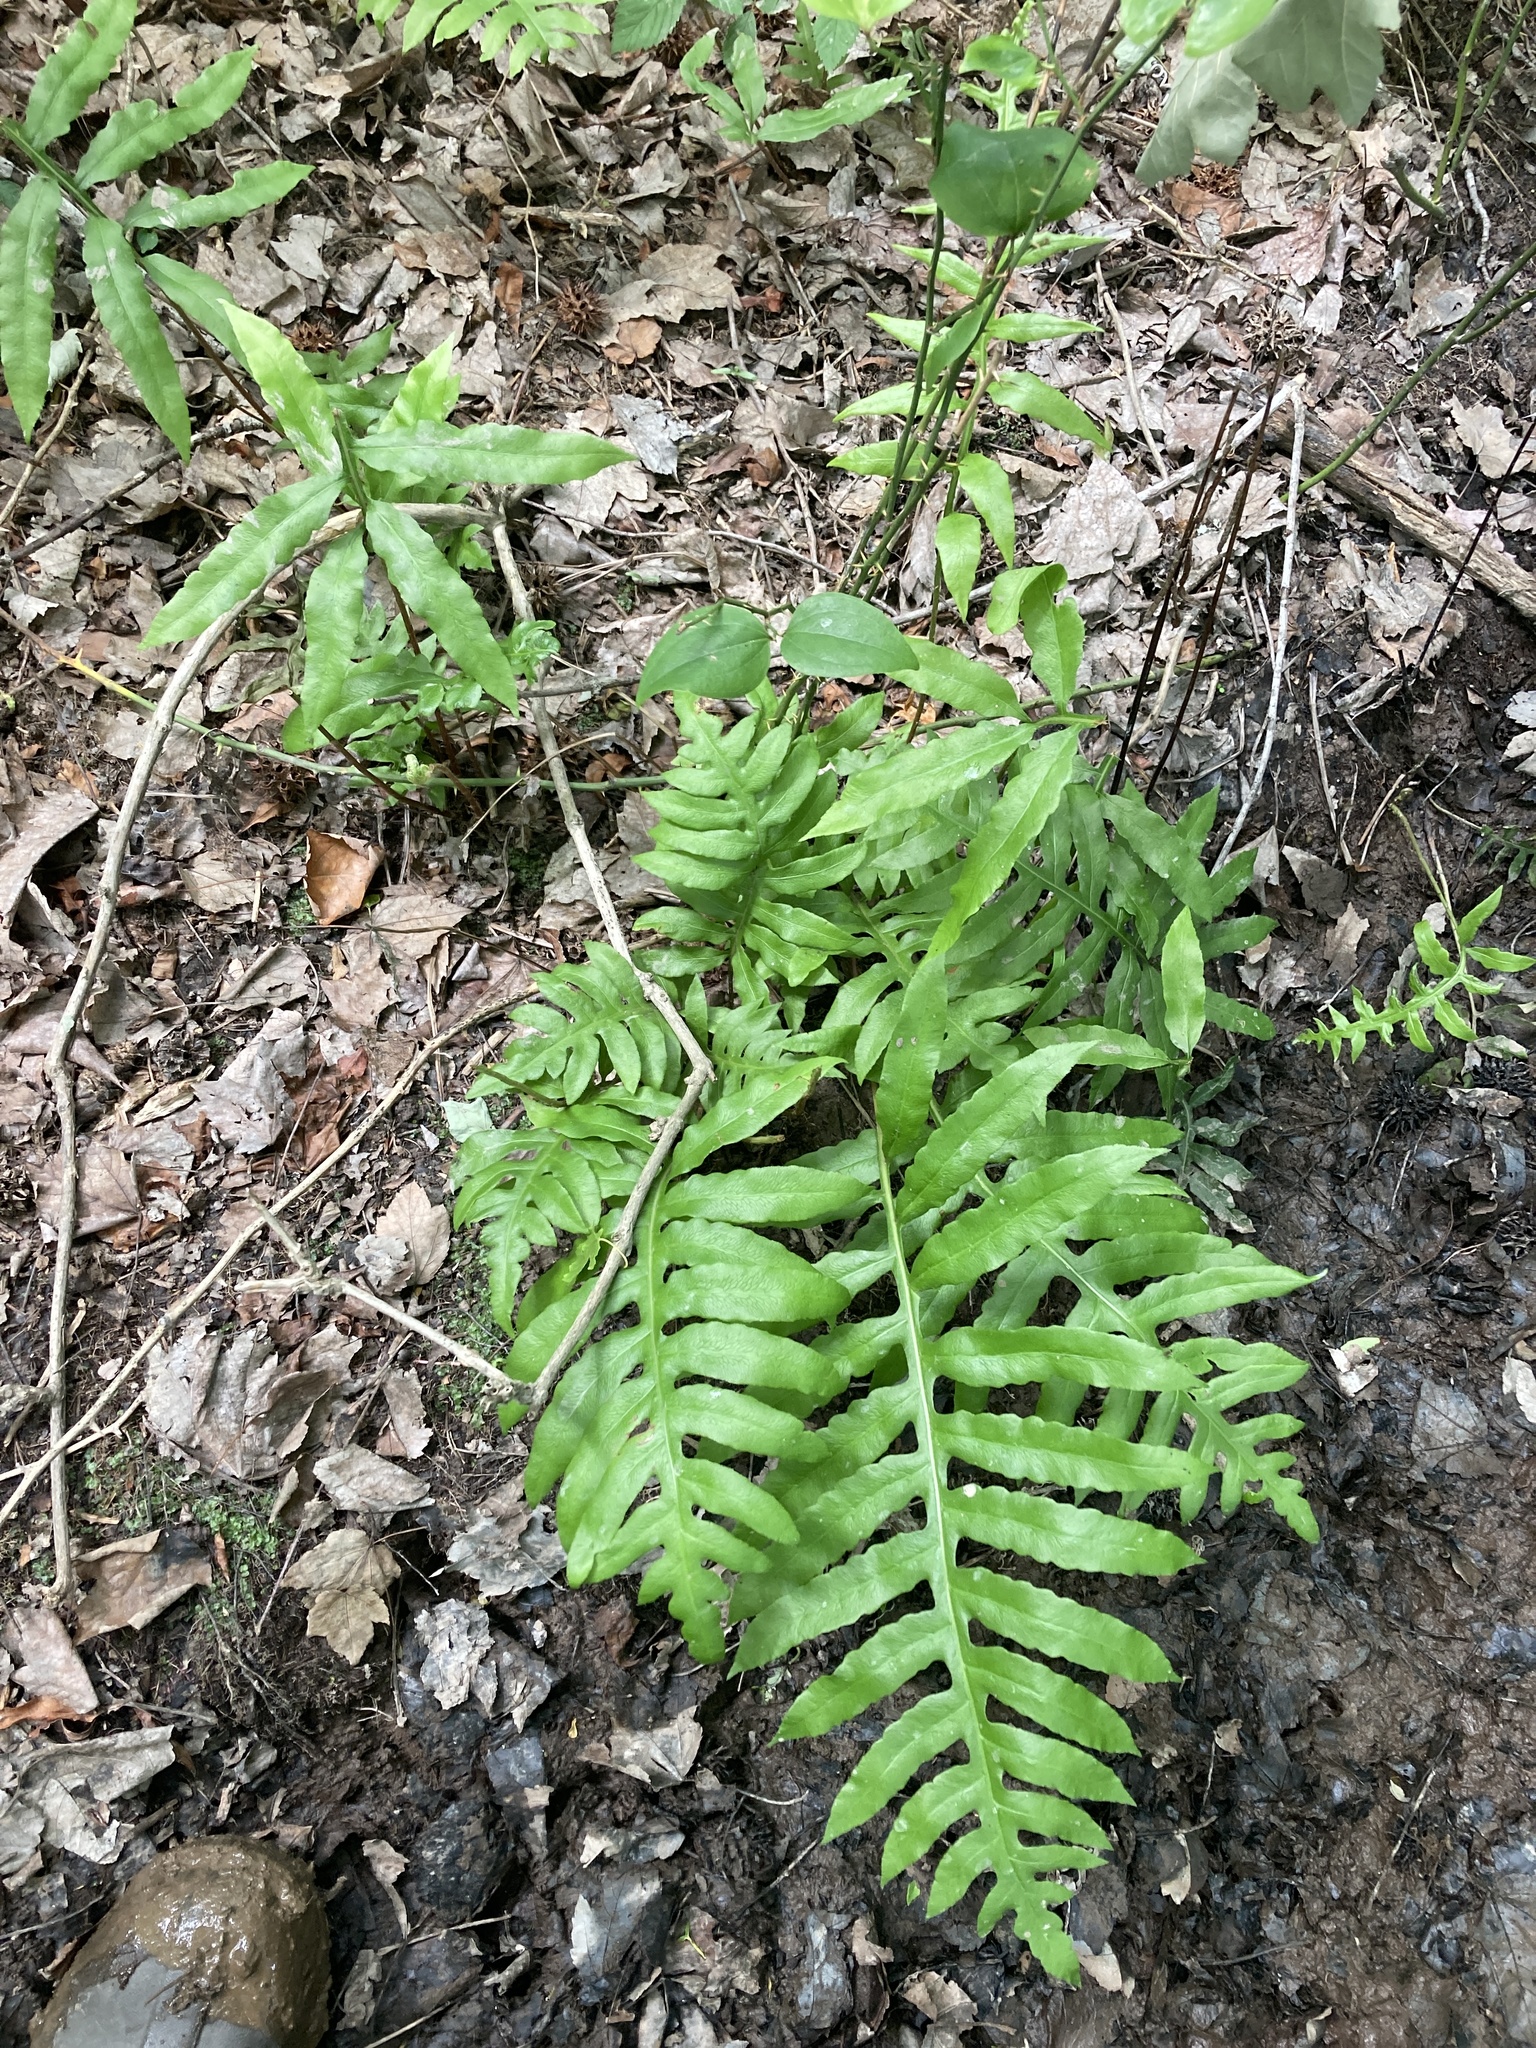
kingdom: Plantae
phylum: Tracheophyta
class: Polypodiopsida
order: Polypodiales
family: Blechnaceae
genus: Lorinseria
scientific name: Lorinseria areolata
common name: Dwarf chain fern
